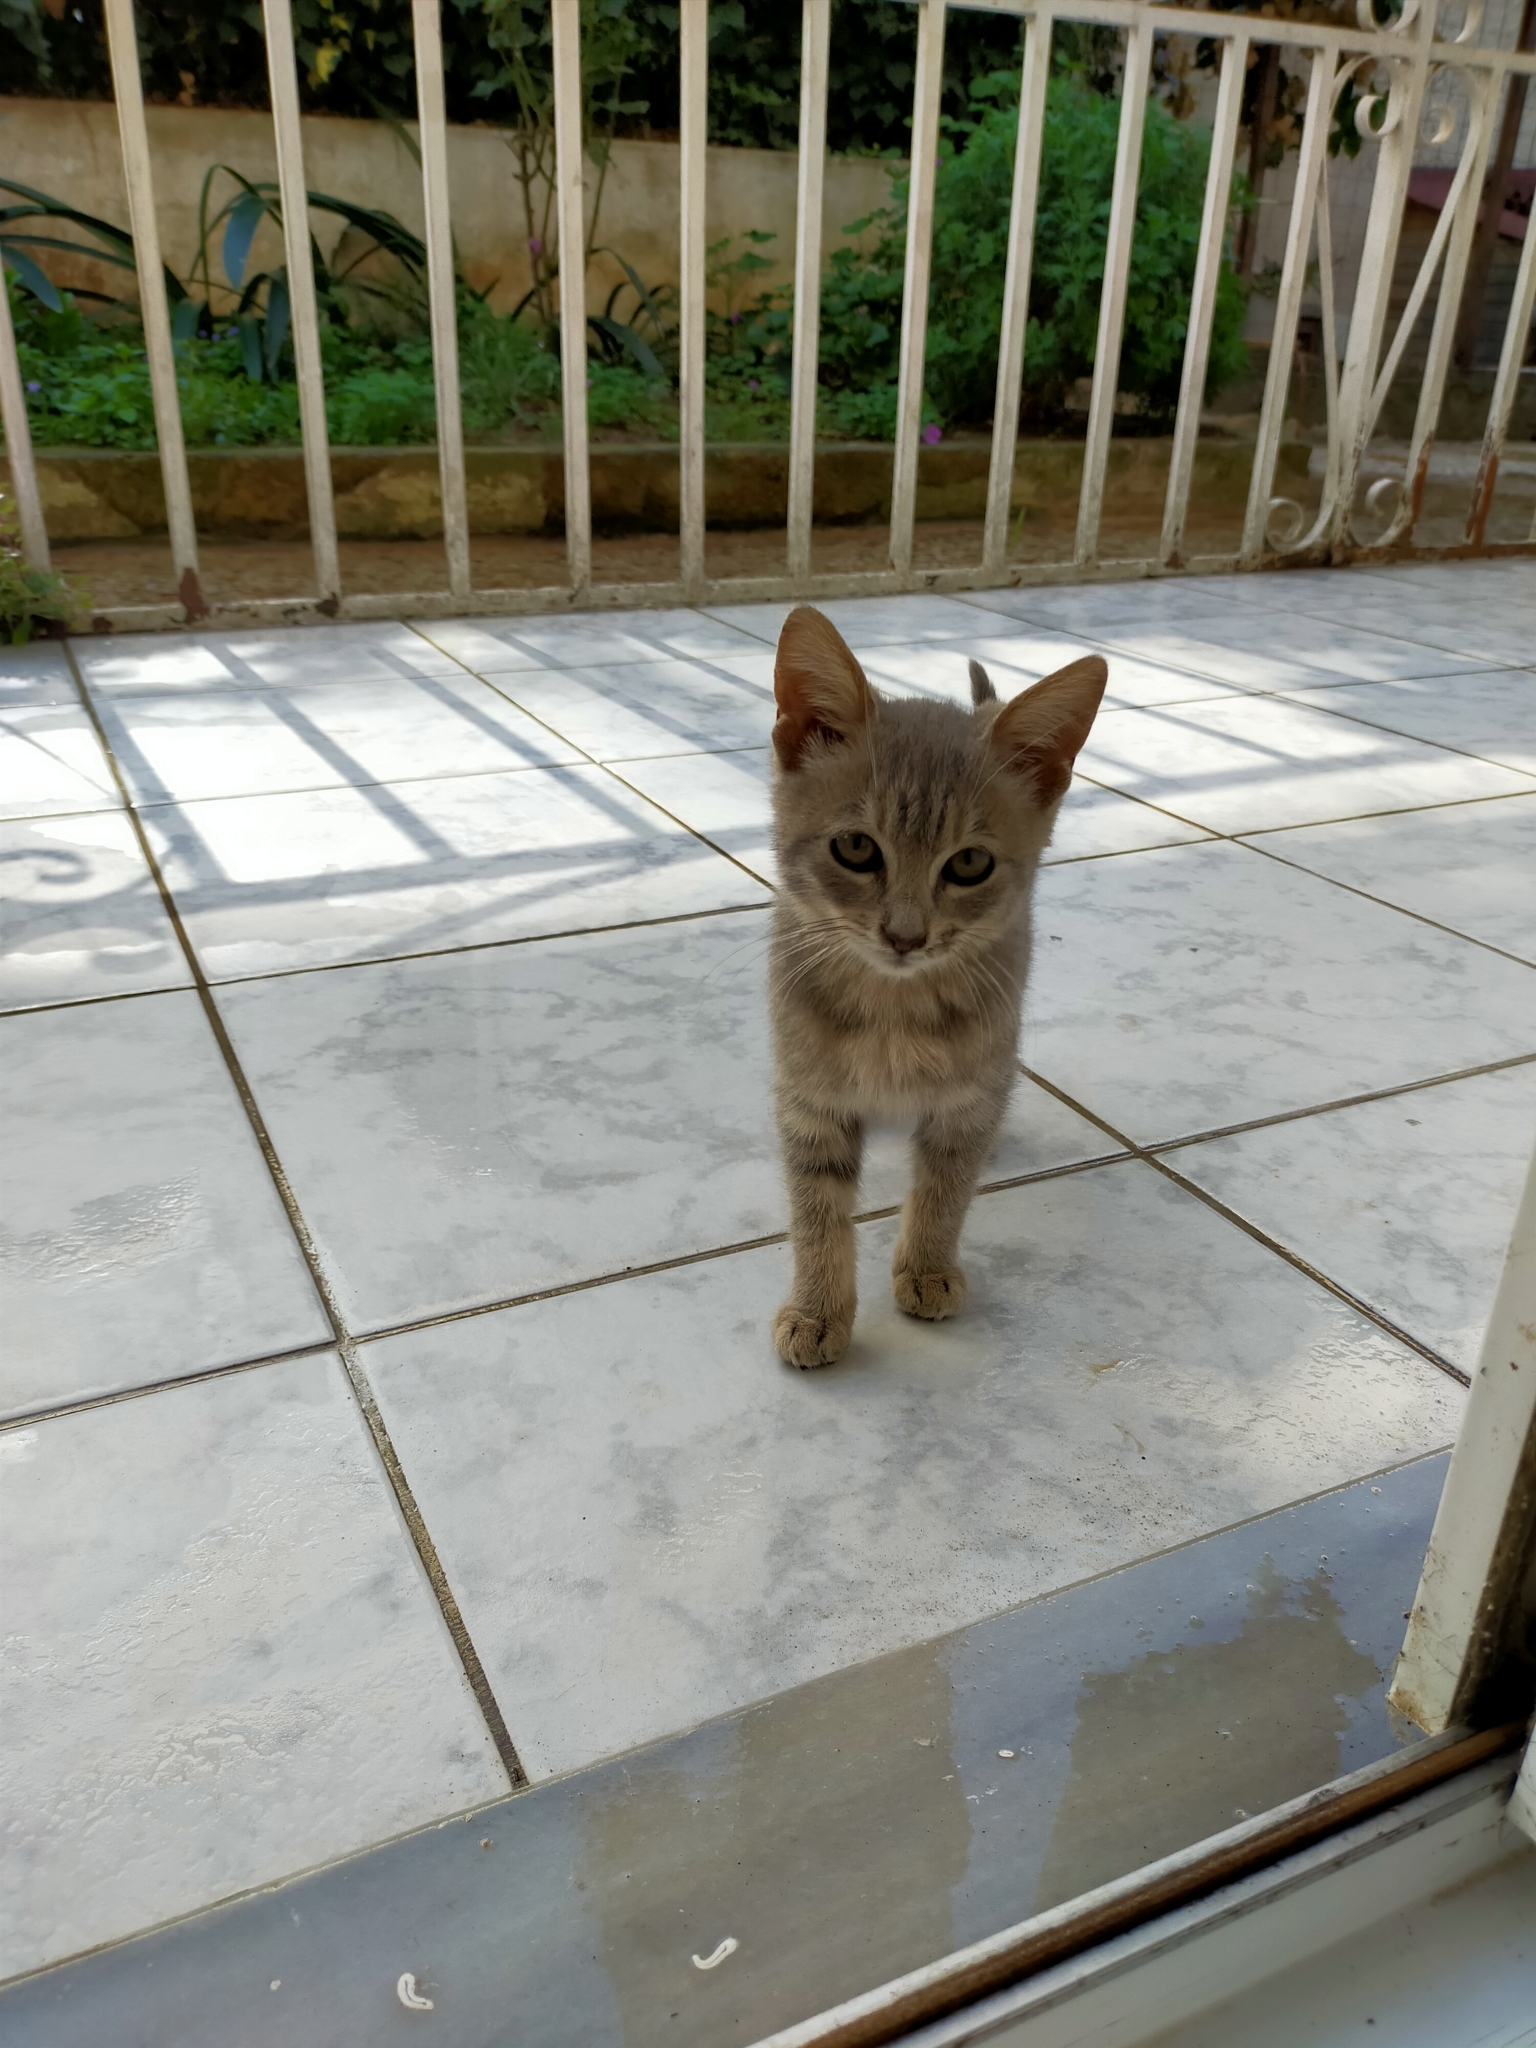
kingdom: Animalia
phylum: Chordata
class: Mammalia
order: Carnivora
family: Felidae
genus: Felis
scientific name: Felis catus
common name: Domestic cat
